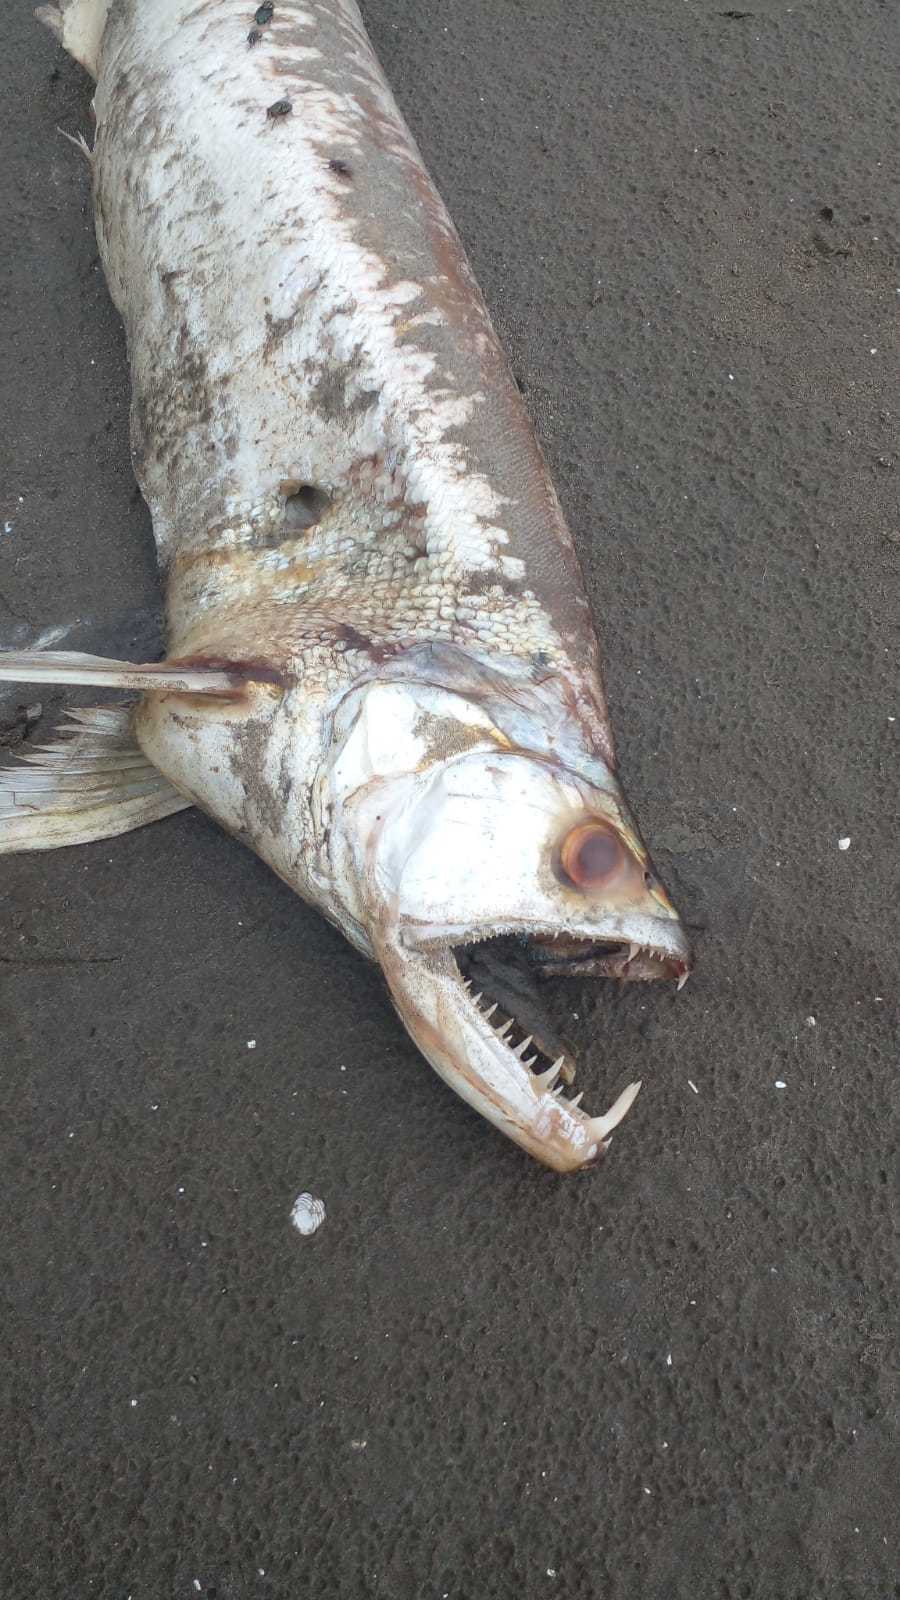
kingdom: Animalia
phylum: Chordata
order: Characiformes
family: Cynodontidae
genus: Rhaphiodon
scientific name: Rhaphiodon vulpinus
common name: Biara
